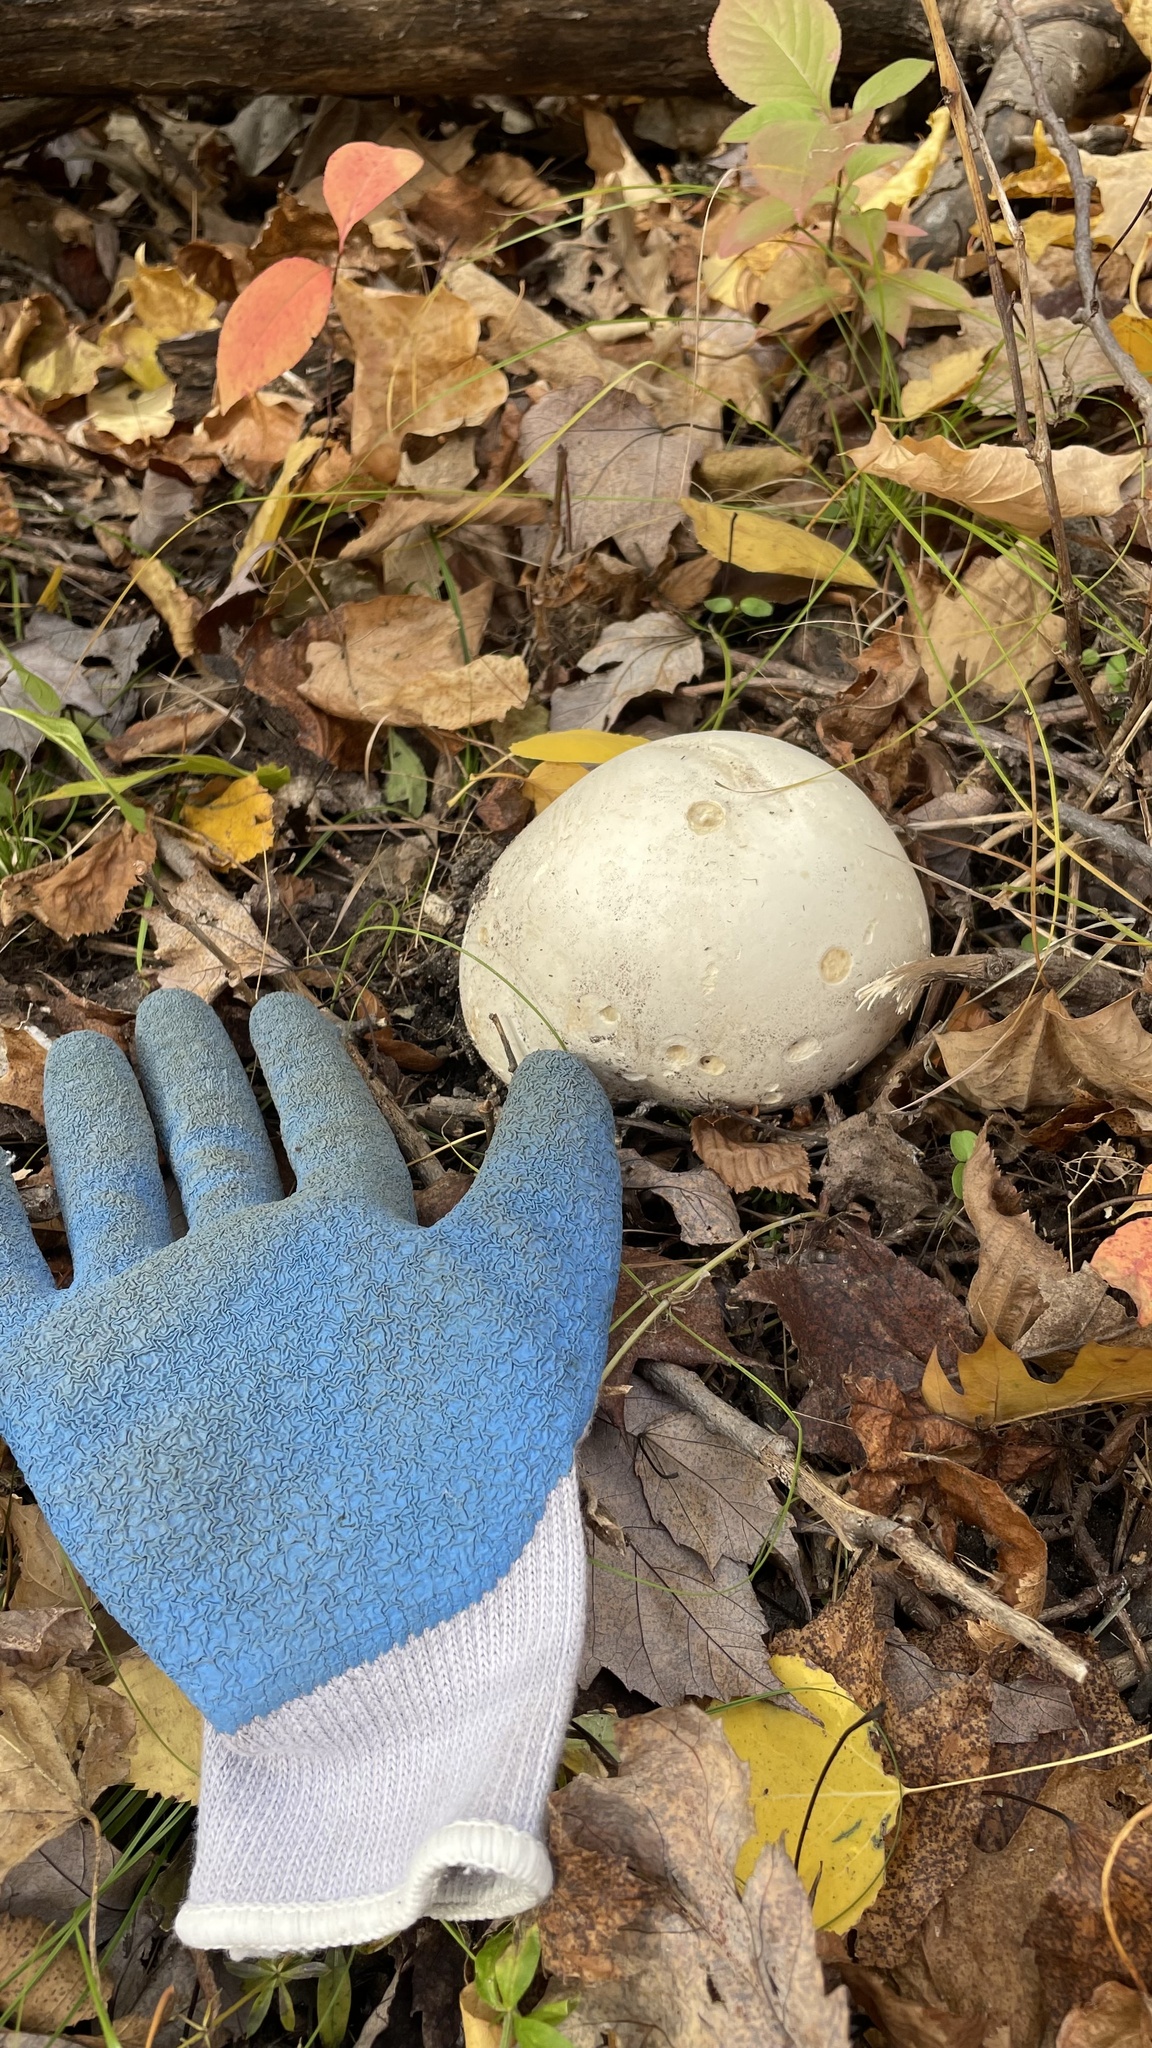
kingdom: Fungi
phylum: Basidiomycota
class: Agaricomycetes
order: Agaricales
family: Lycoperdaceae
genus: Calvatia
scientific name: Calvatia gigantea
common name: Giant puffball
